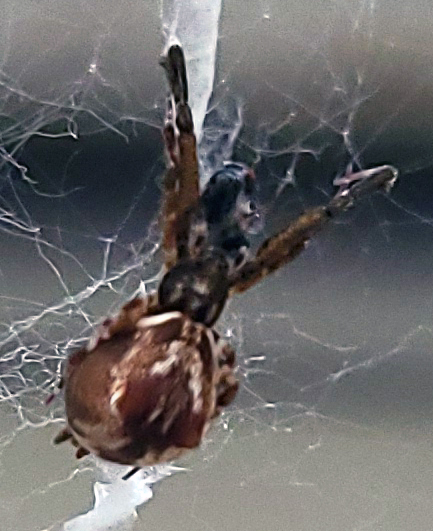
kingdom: Animalia
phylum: Arthropoda
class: Arachnida
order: Araneae
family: Uloboridae
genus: Uloborus
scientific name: Uloborus glomosus
